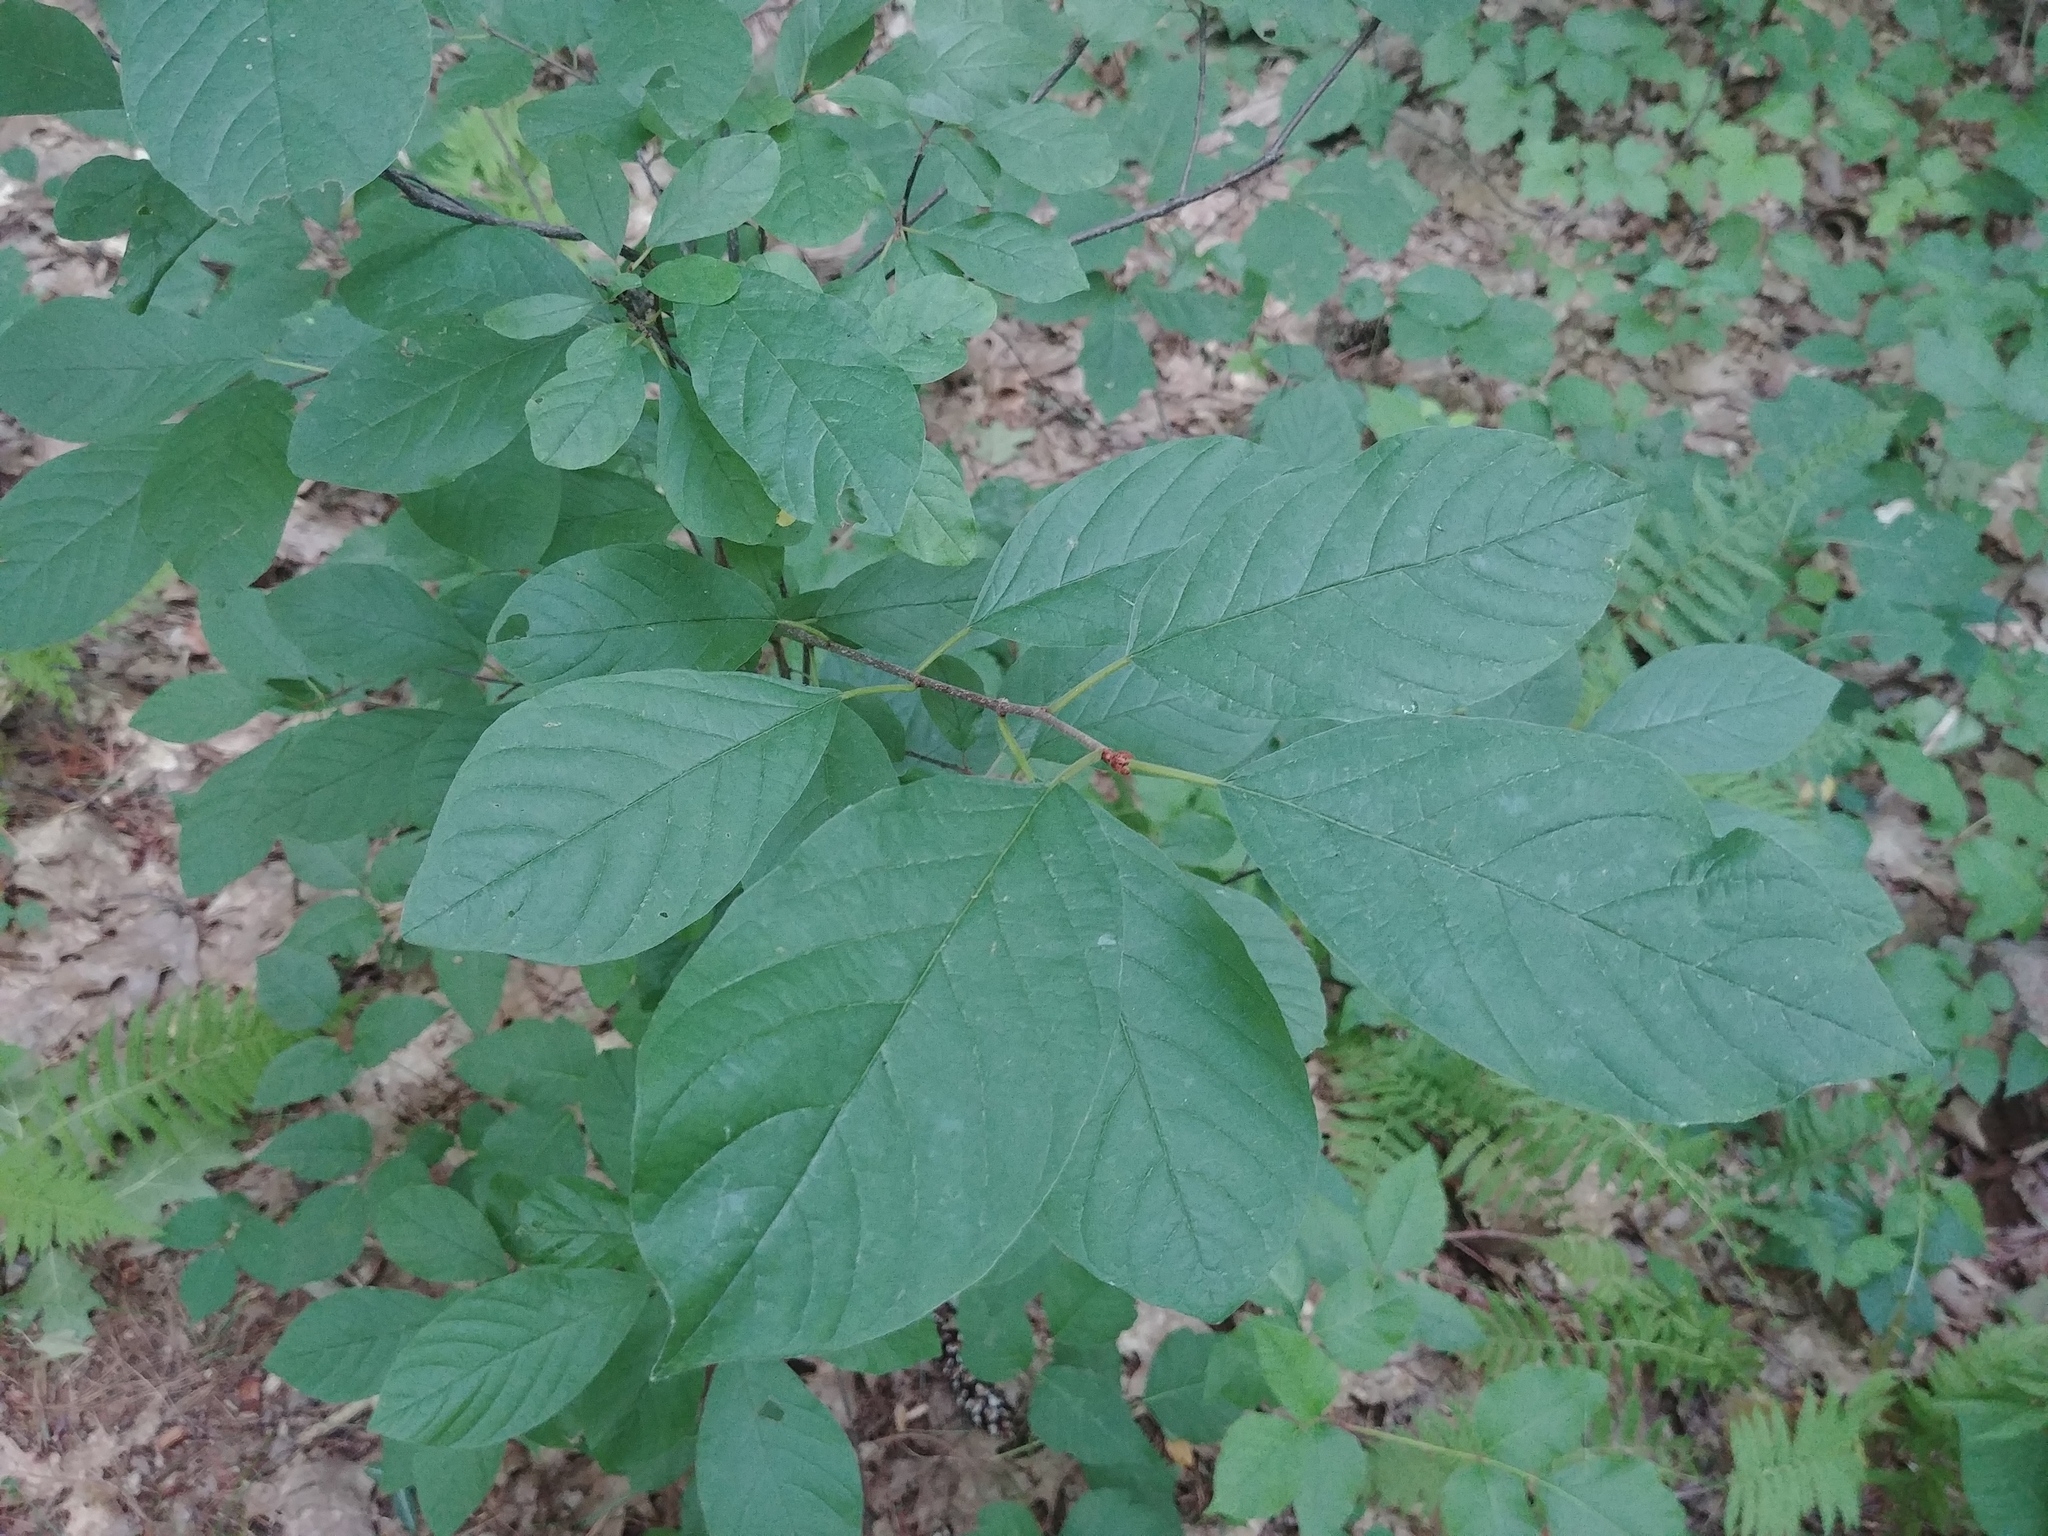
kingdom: Plantae
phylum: Tracheophyta
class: Magnoliopsida
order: Rosales
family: Rhamnaceae
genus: Frangula
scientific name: Frangula alnus
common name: Alder buckthorn
